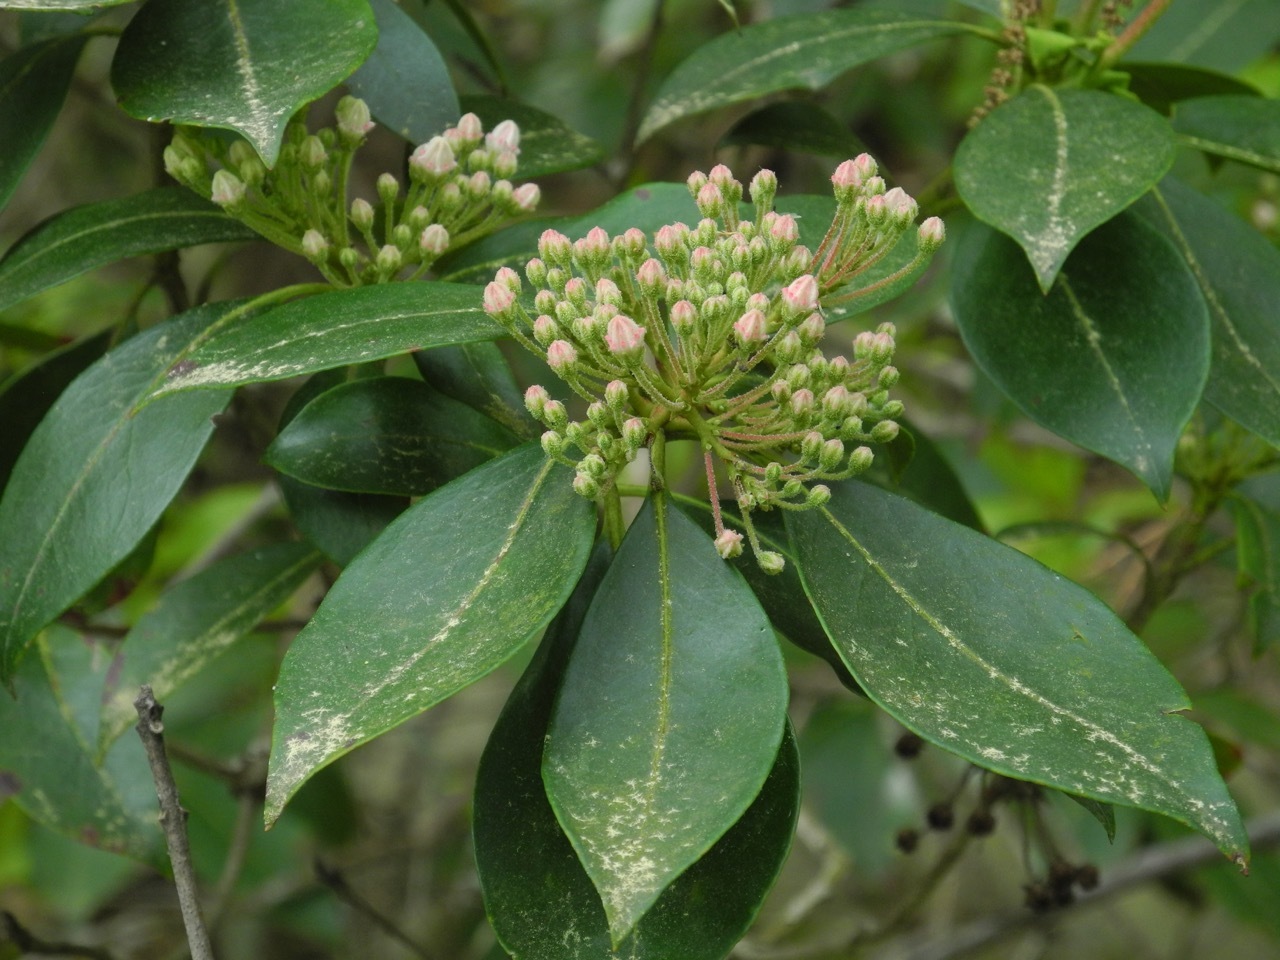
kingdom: Plantae
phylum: Tracheophyta
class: Magnoliopsida
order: Ericales
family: Ericaceae
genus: Kalmia
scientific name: Kalmia latifolia
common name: Mountain-laurel
